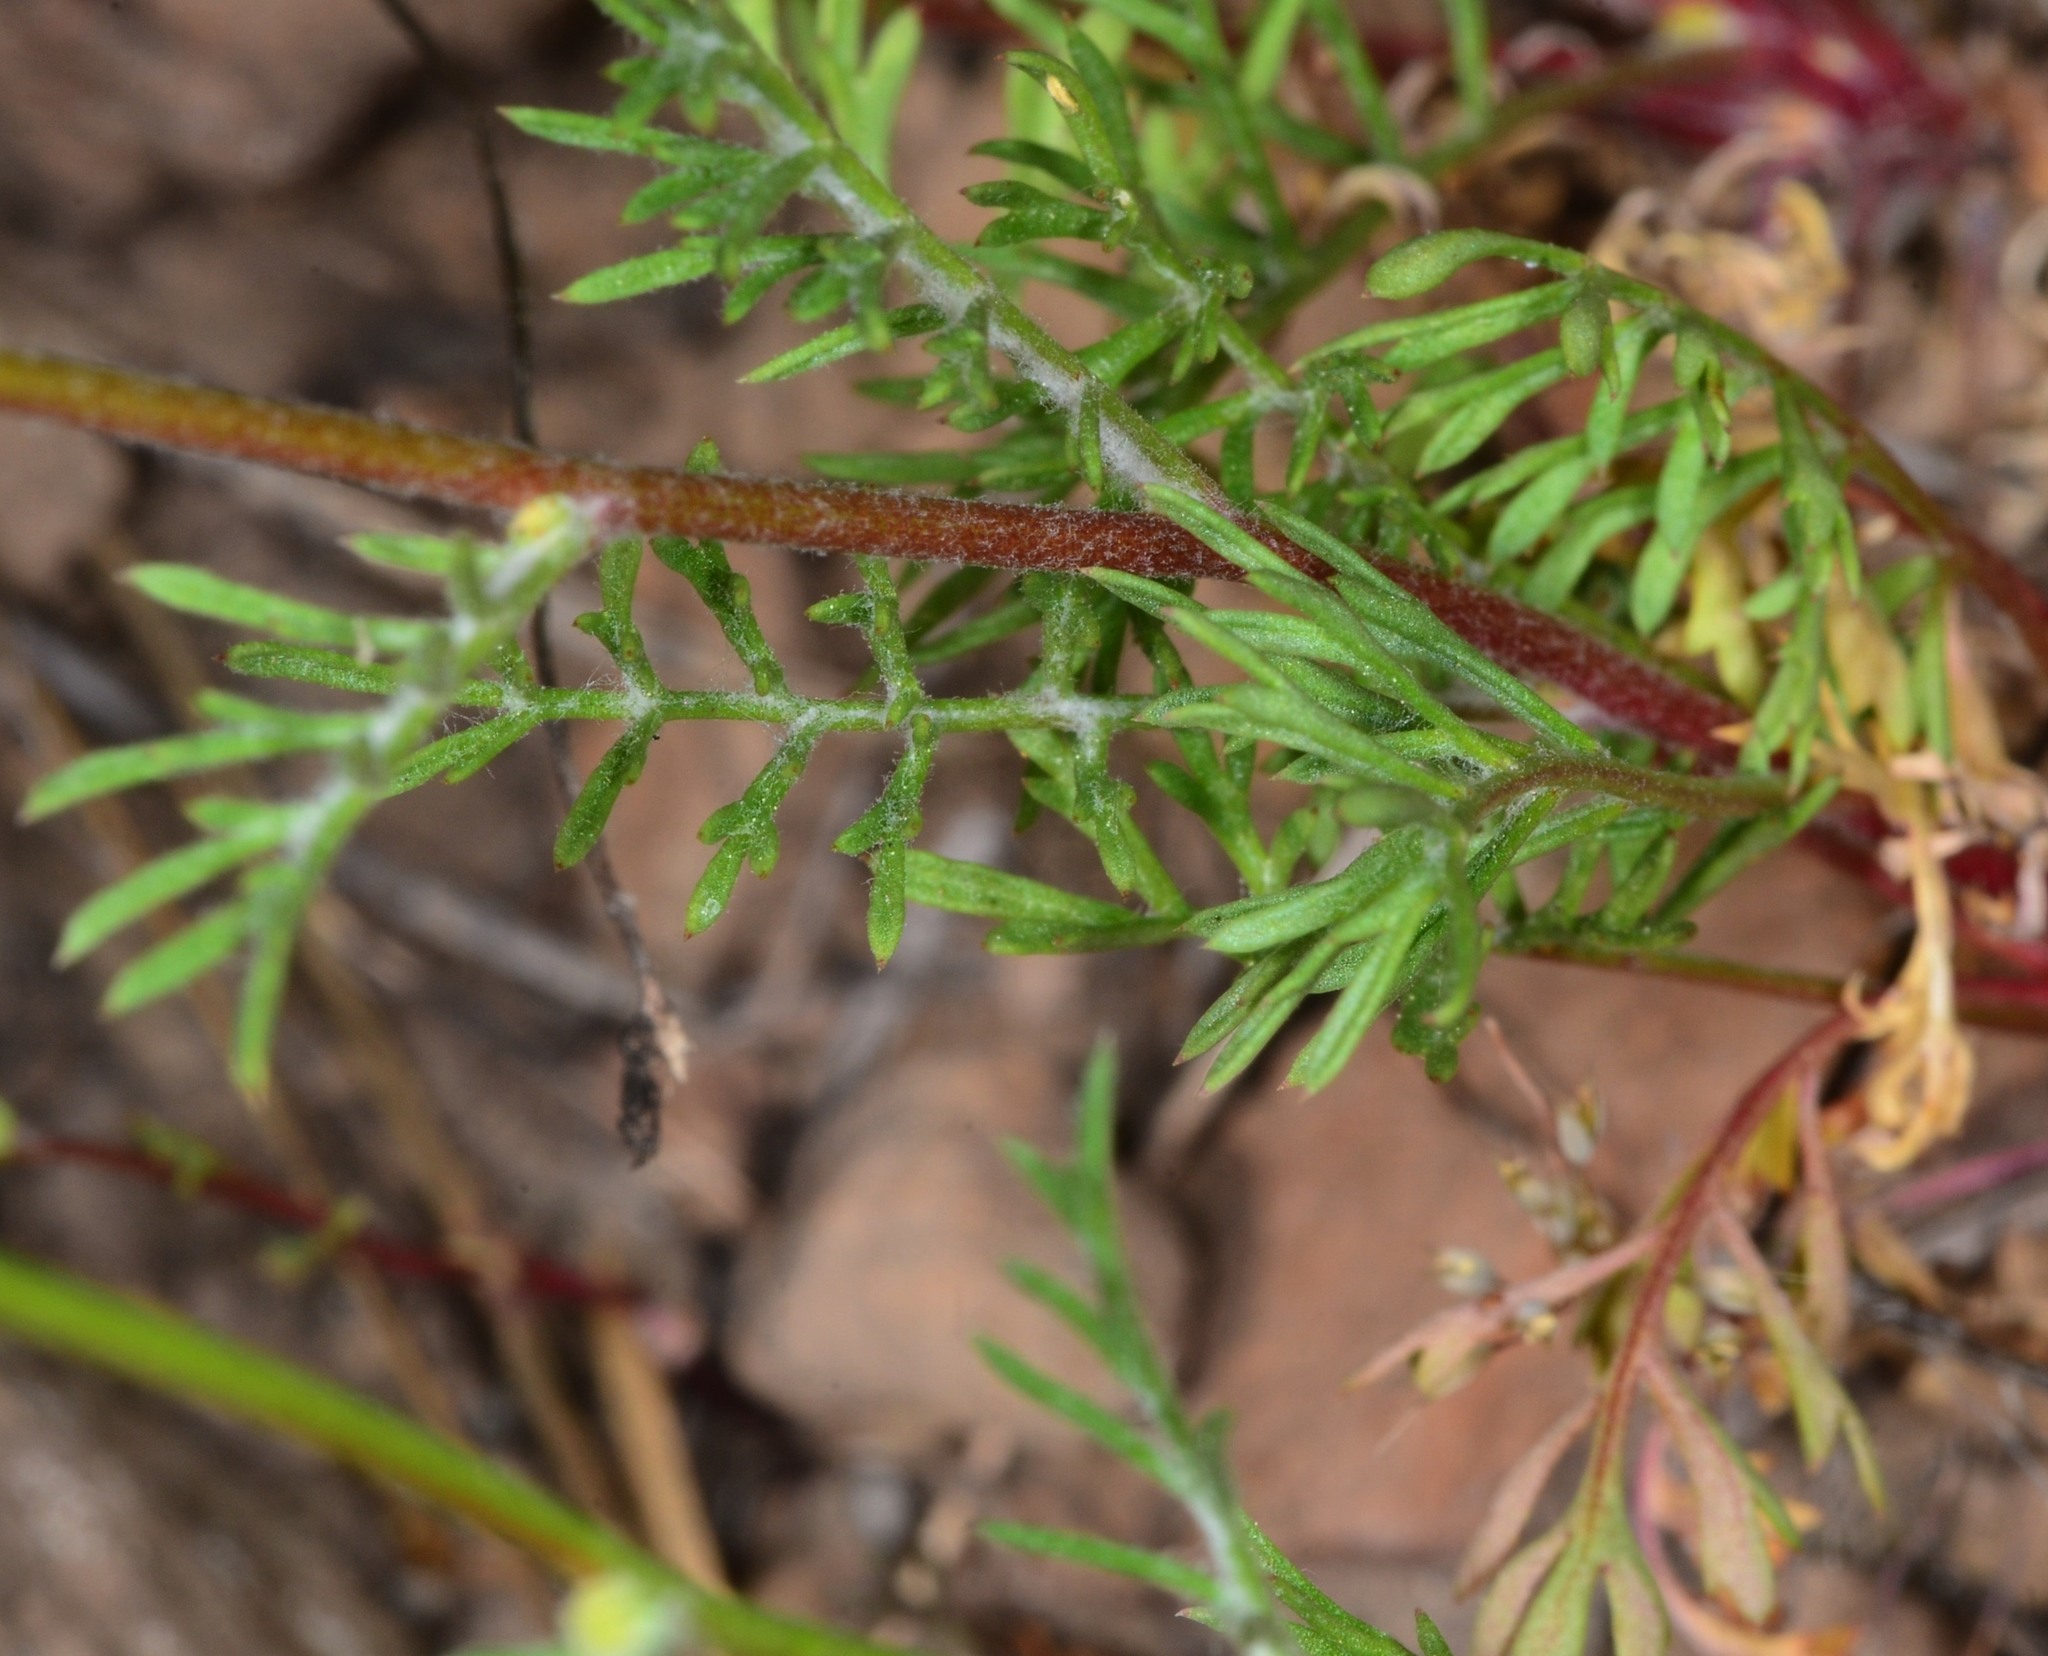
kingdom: Plantae
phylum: Tracheophyta
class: Magnoliopsida
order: Ericales
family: Polemoniaceae
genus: Gilia
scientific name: Gilia capitata
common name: Bluehead gilia
